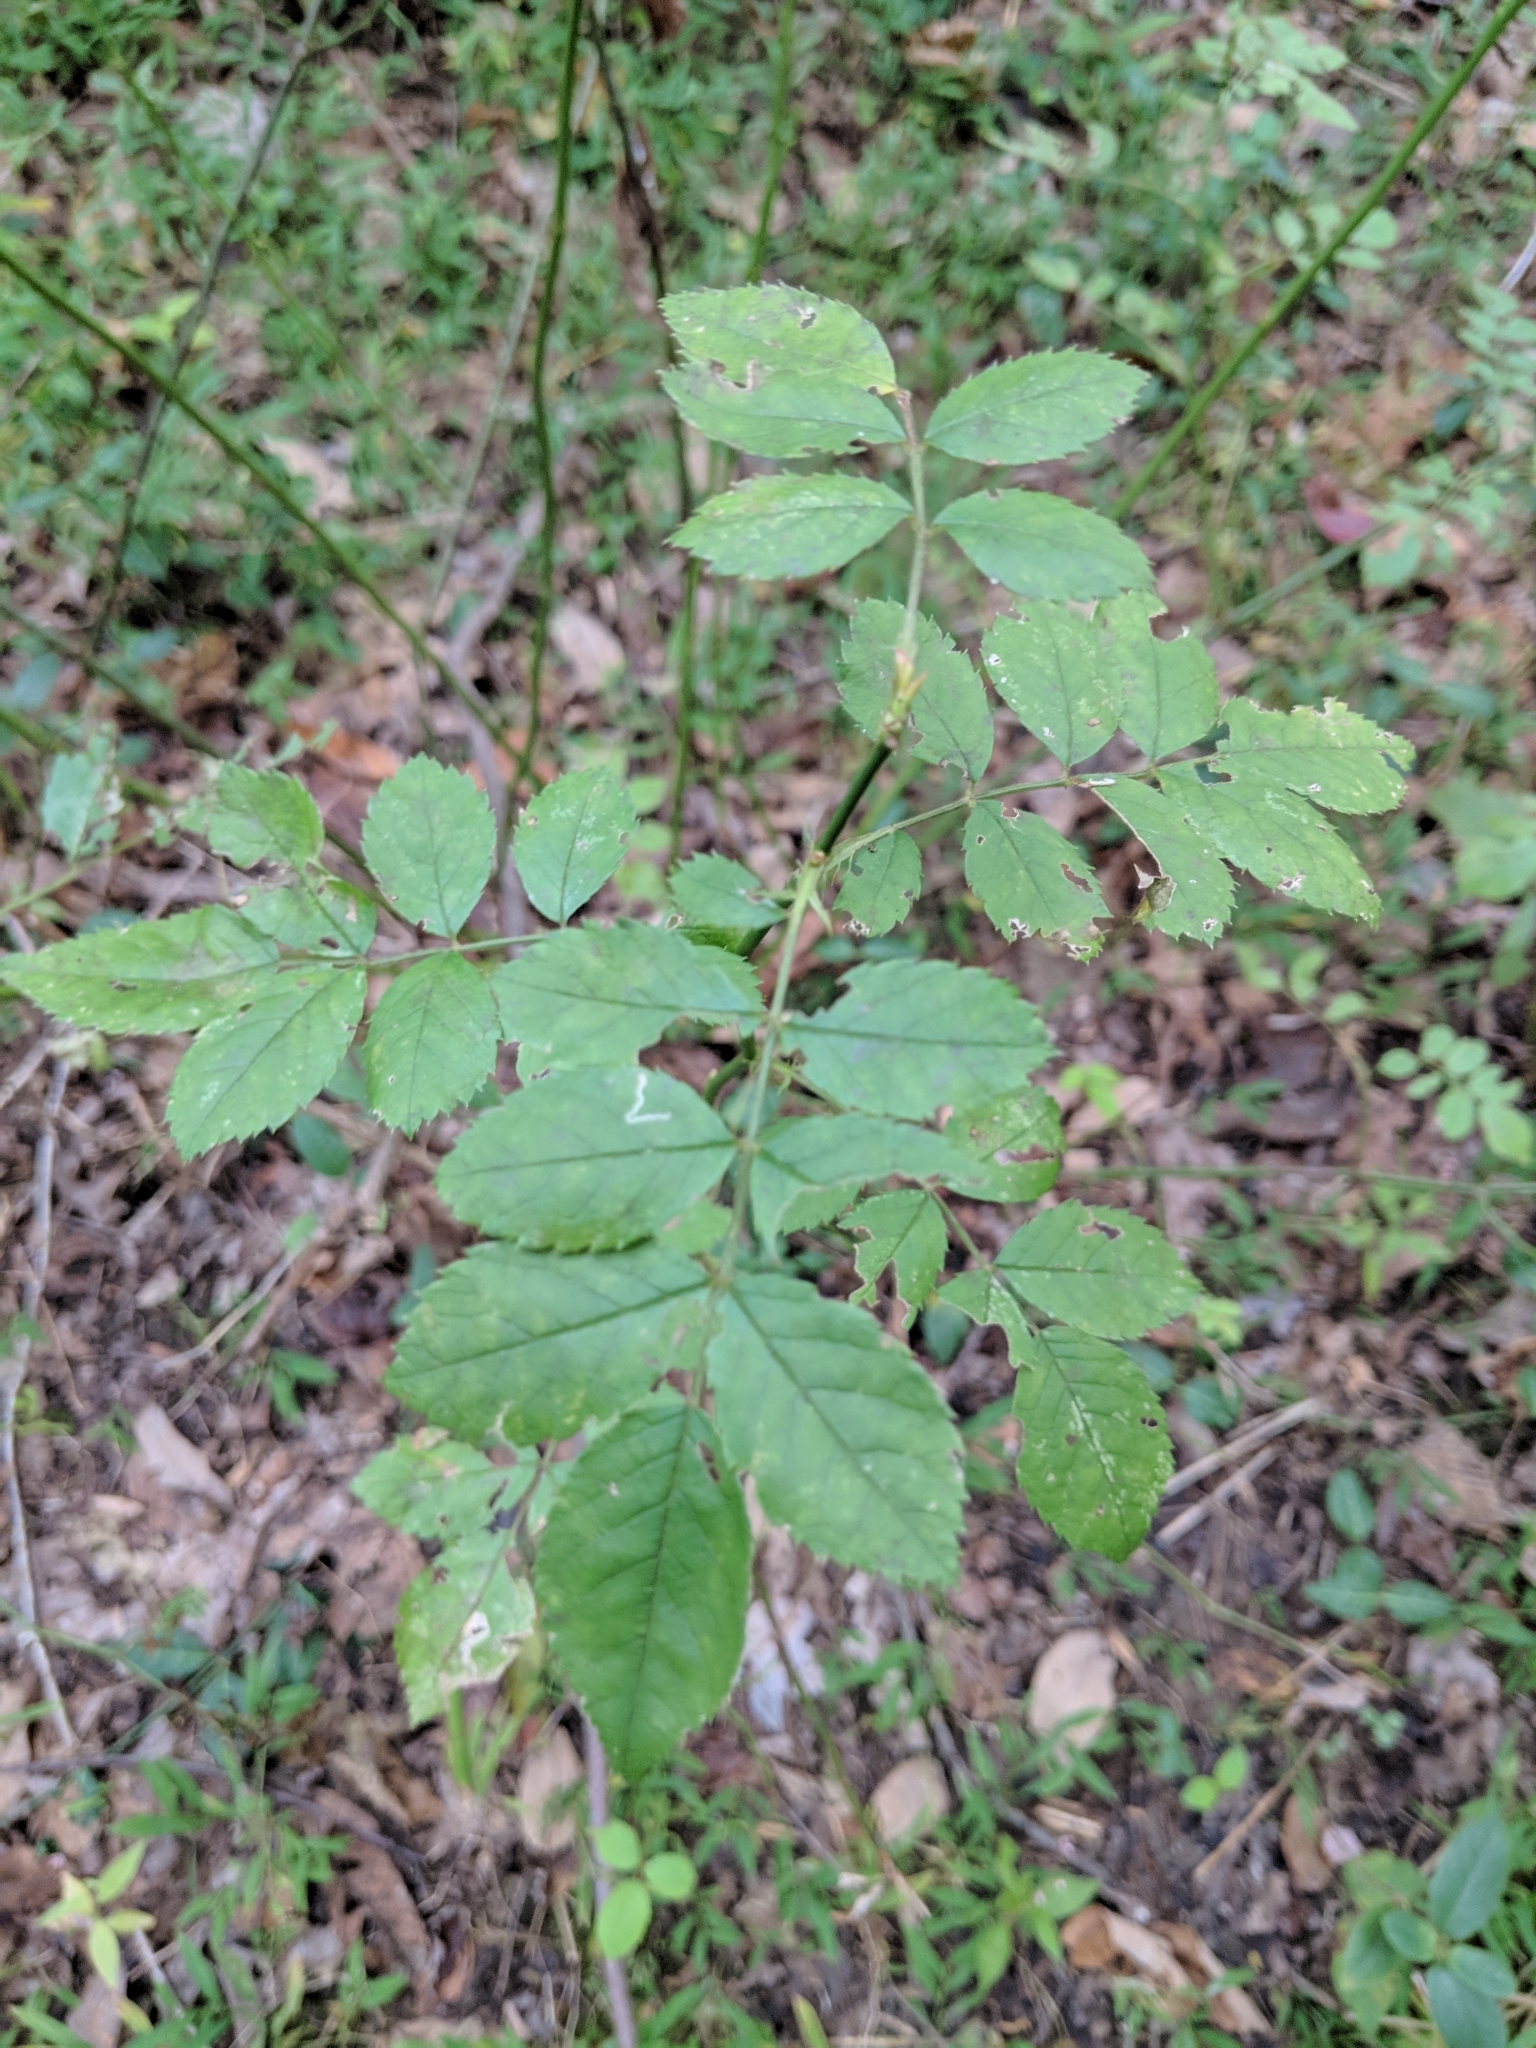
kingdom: Plantae
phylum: Tracheophyta
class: Magnoliopsida
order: Rosales
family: Rosaceae
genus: Rosa
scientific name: Rosa multiflora
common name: Multiflora rose
